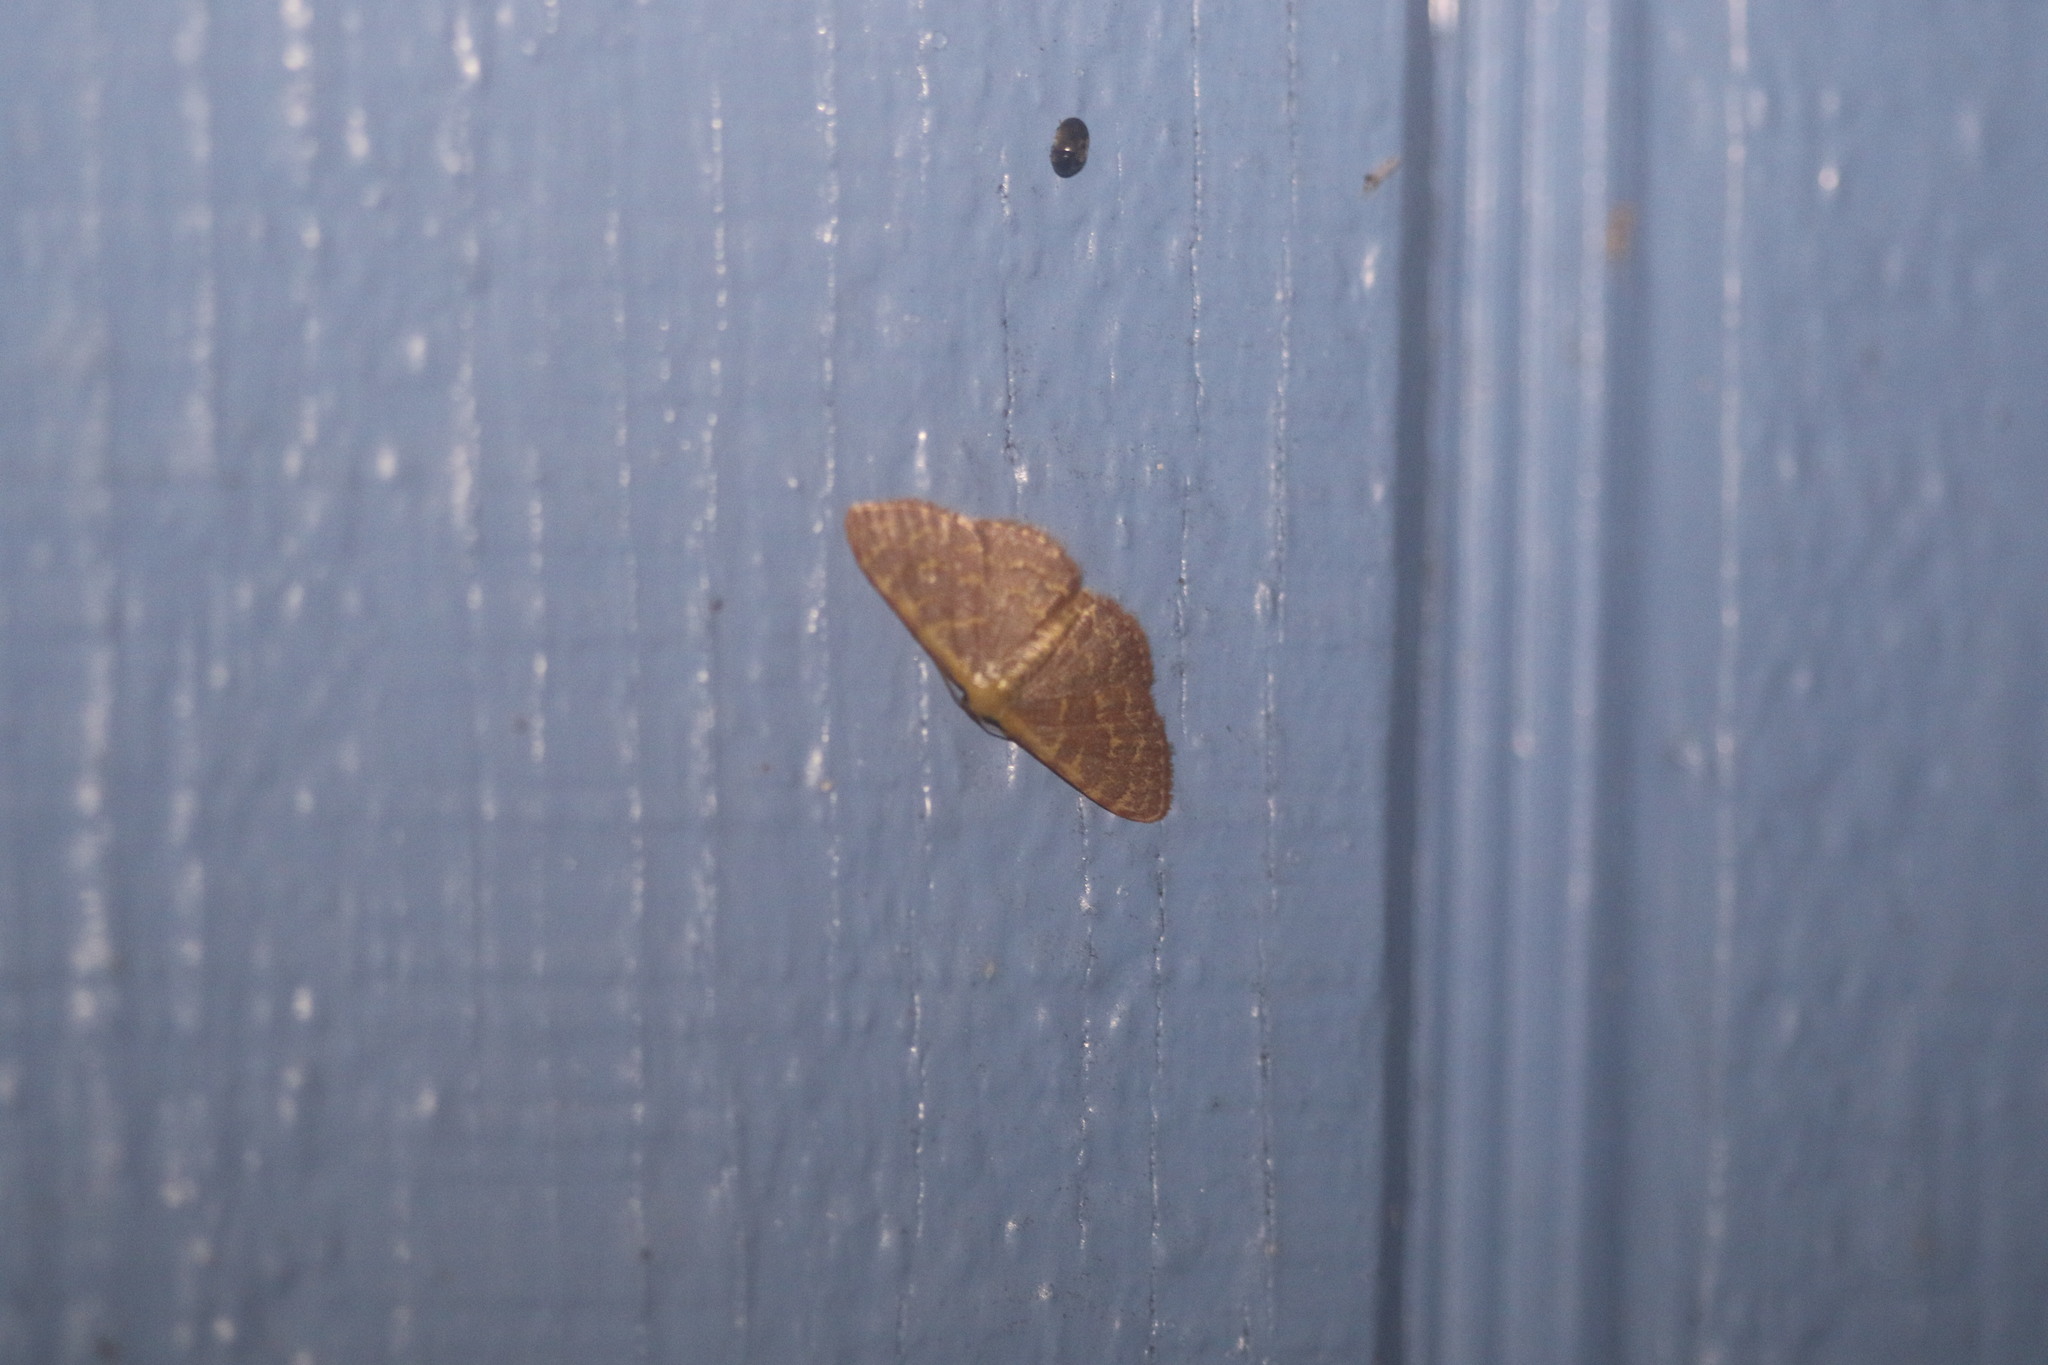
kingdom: Animalia
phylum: Arthropoda
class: Insecta
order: Lepidoptera
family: Geometridae
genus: Leptostales
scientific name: Leptostales pannaria
